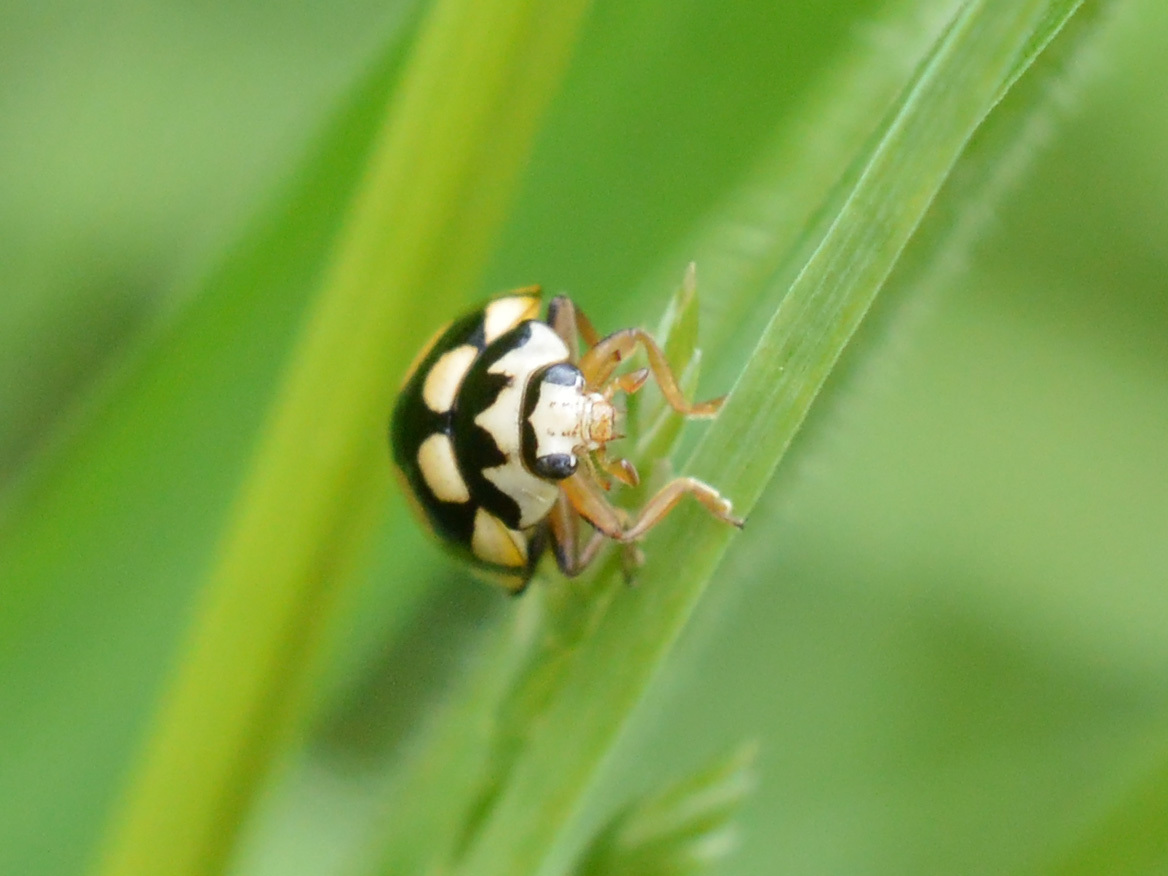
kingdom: Animalia
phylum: Arthropoda
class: Insecta
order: Coleoptera
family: Coccinellidae
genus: Coccinula
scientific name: Coccinula quatuordecimpustulata
